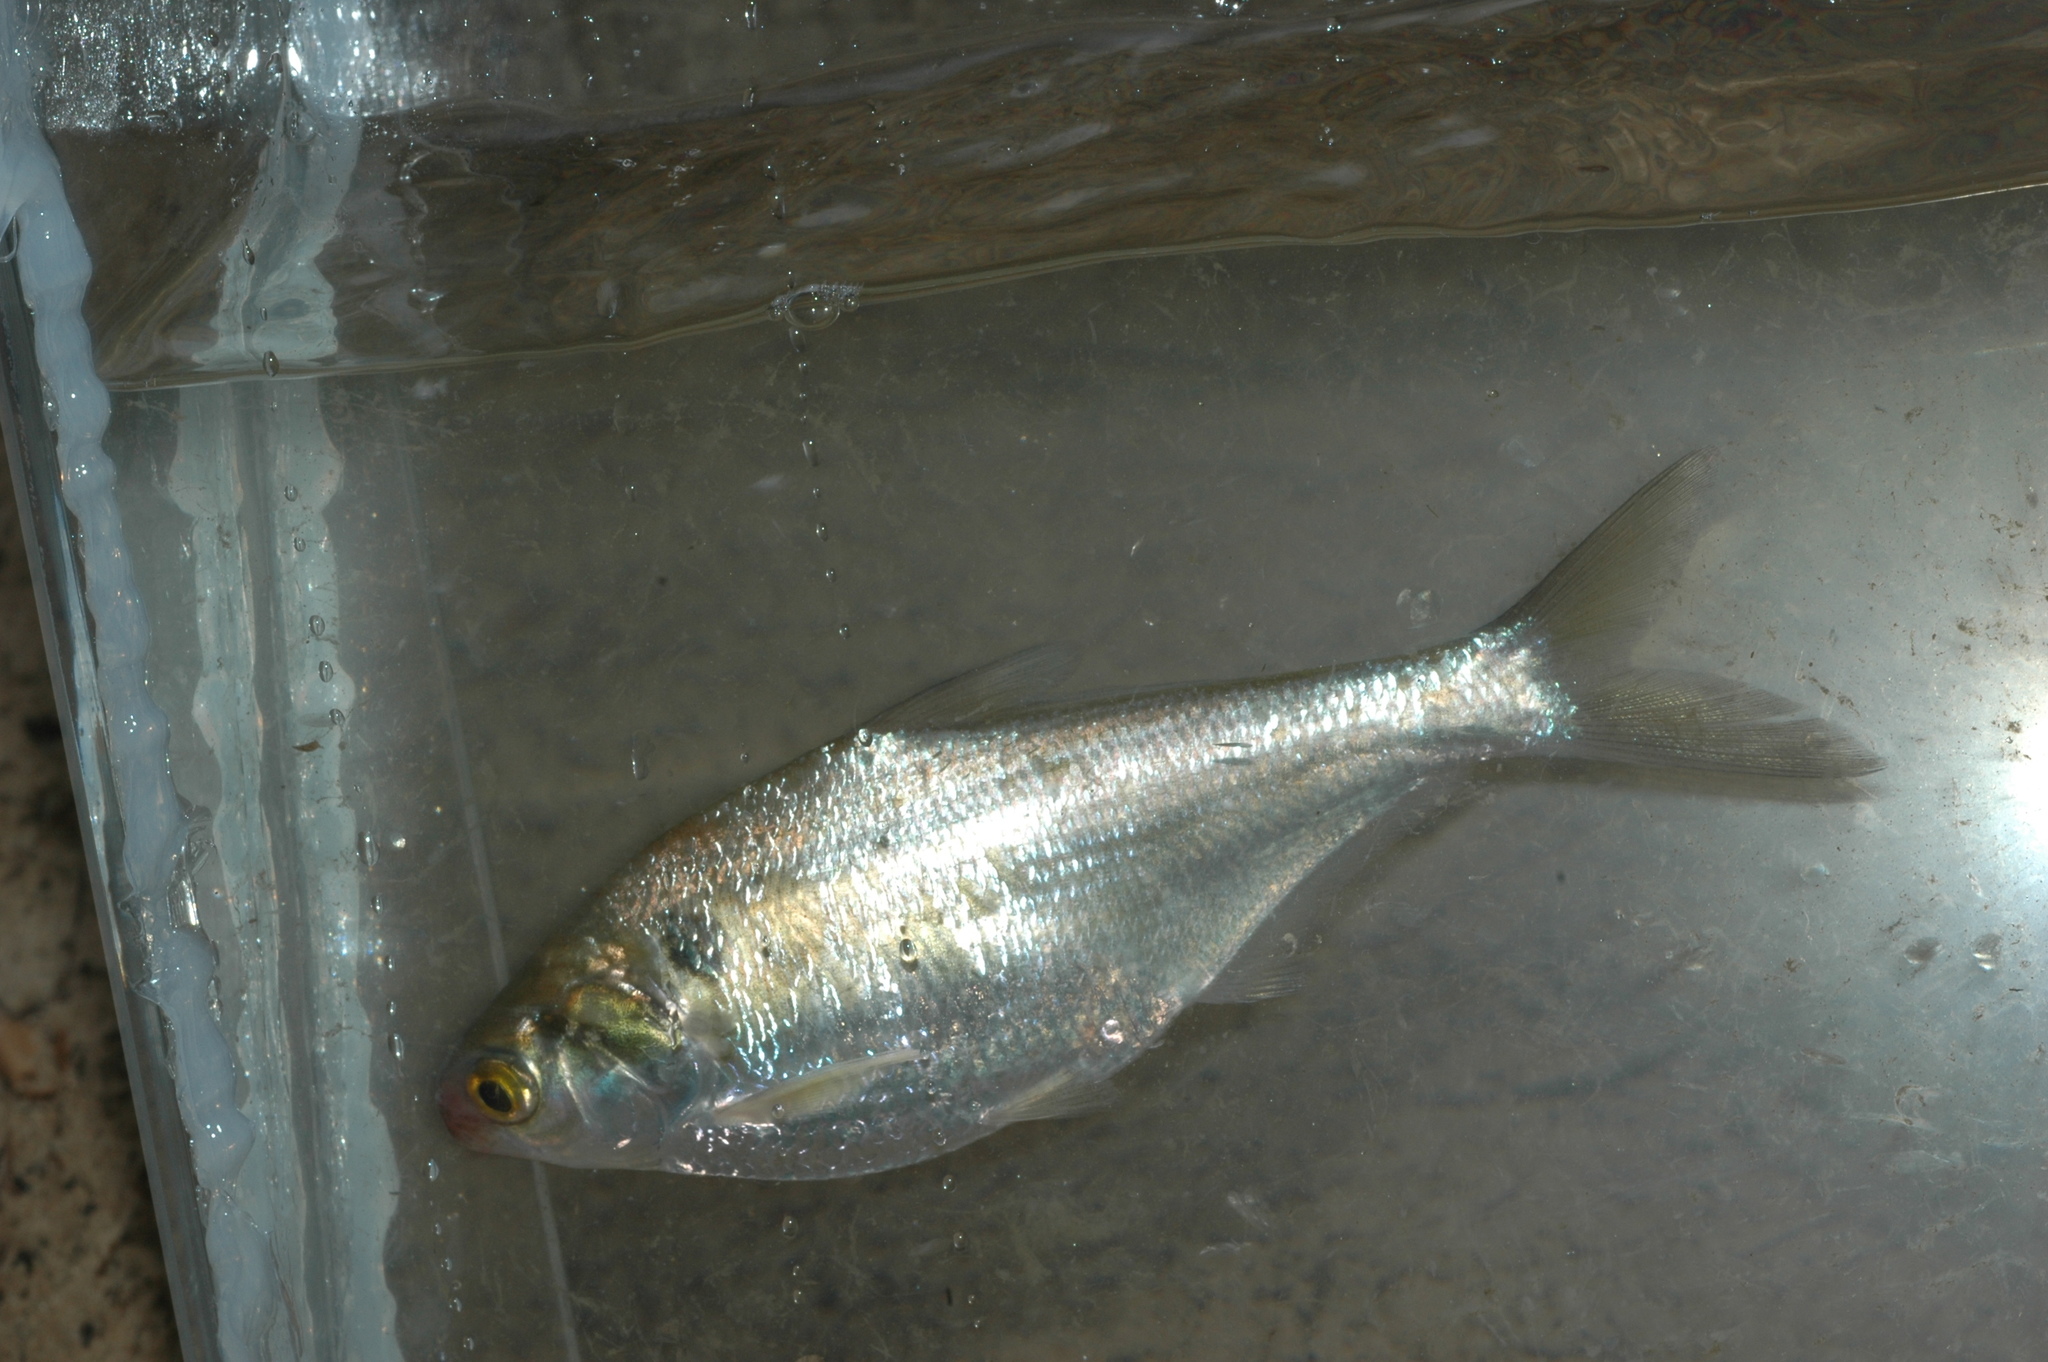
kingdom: Animalia
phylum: Chordata
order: Clupeiformes
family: Clupeidae
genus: Dorosoma
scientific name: Dorosoma cepedianum
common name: Gizzard shad
